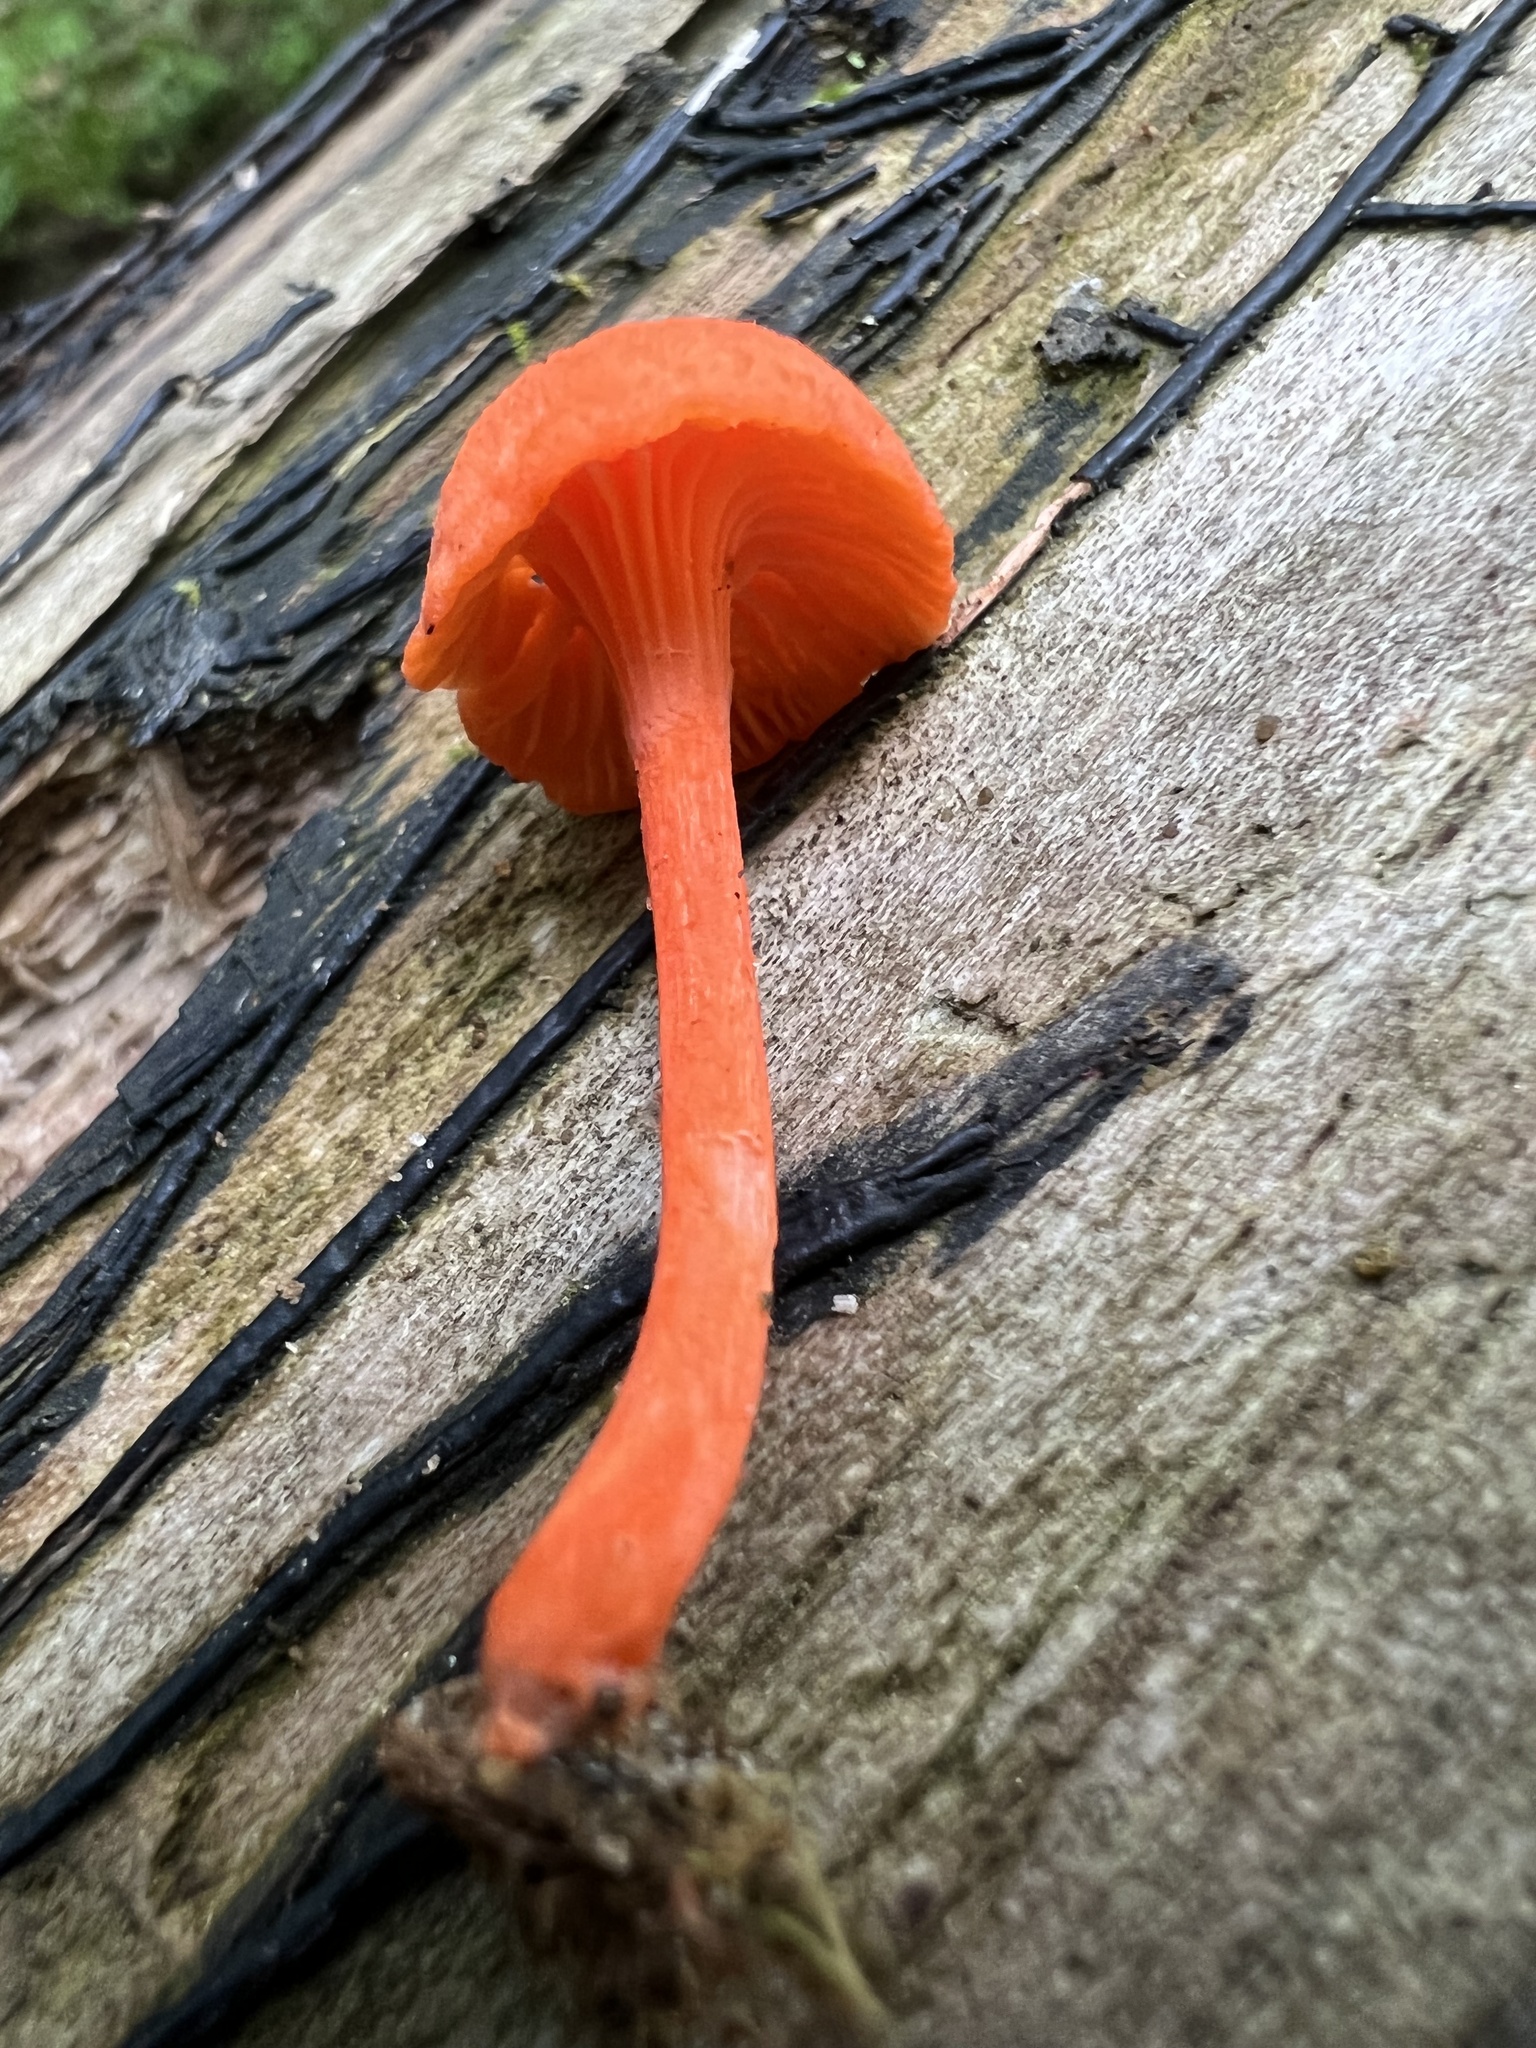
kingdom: Fungi
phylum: Basidiomycota
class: Agaricomycetes
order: Cantharellales
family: Hydnaceae
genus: Cantharellus
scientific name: Cantharellus cinnabarinus
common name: Cinnabar chanterelle
